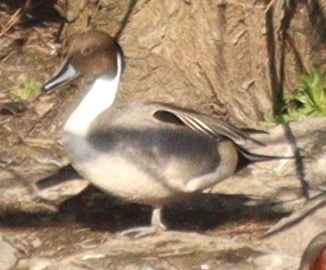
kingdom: Animalia
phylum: Chordata
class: Aves
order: Anseriformes
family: Anatidae
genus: Anas
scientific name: Anas acuta
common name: Northern pintail
